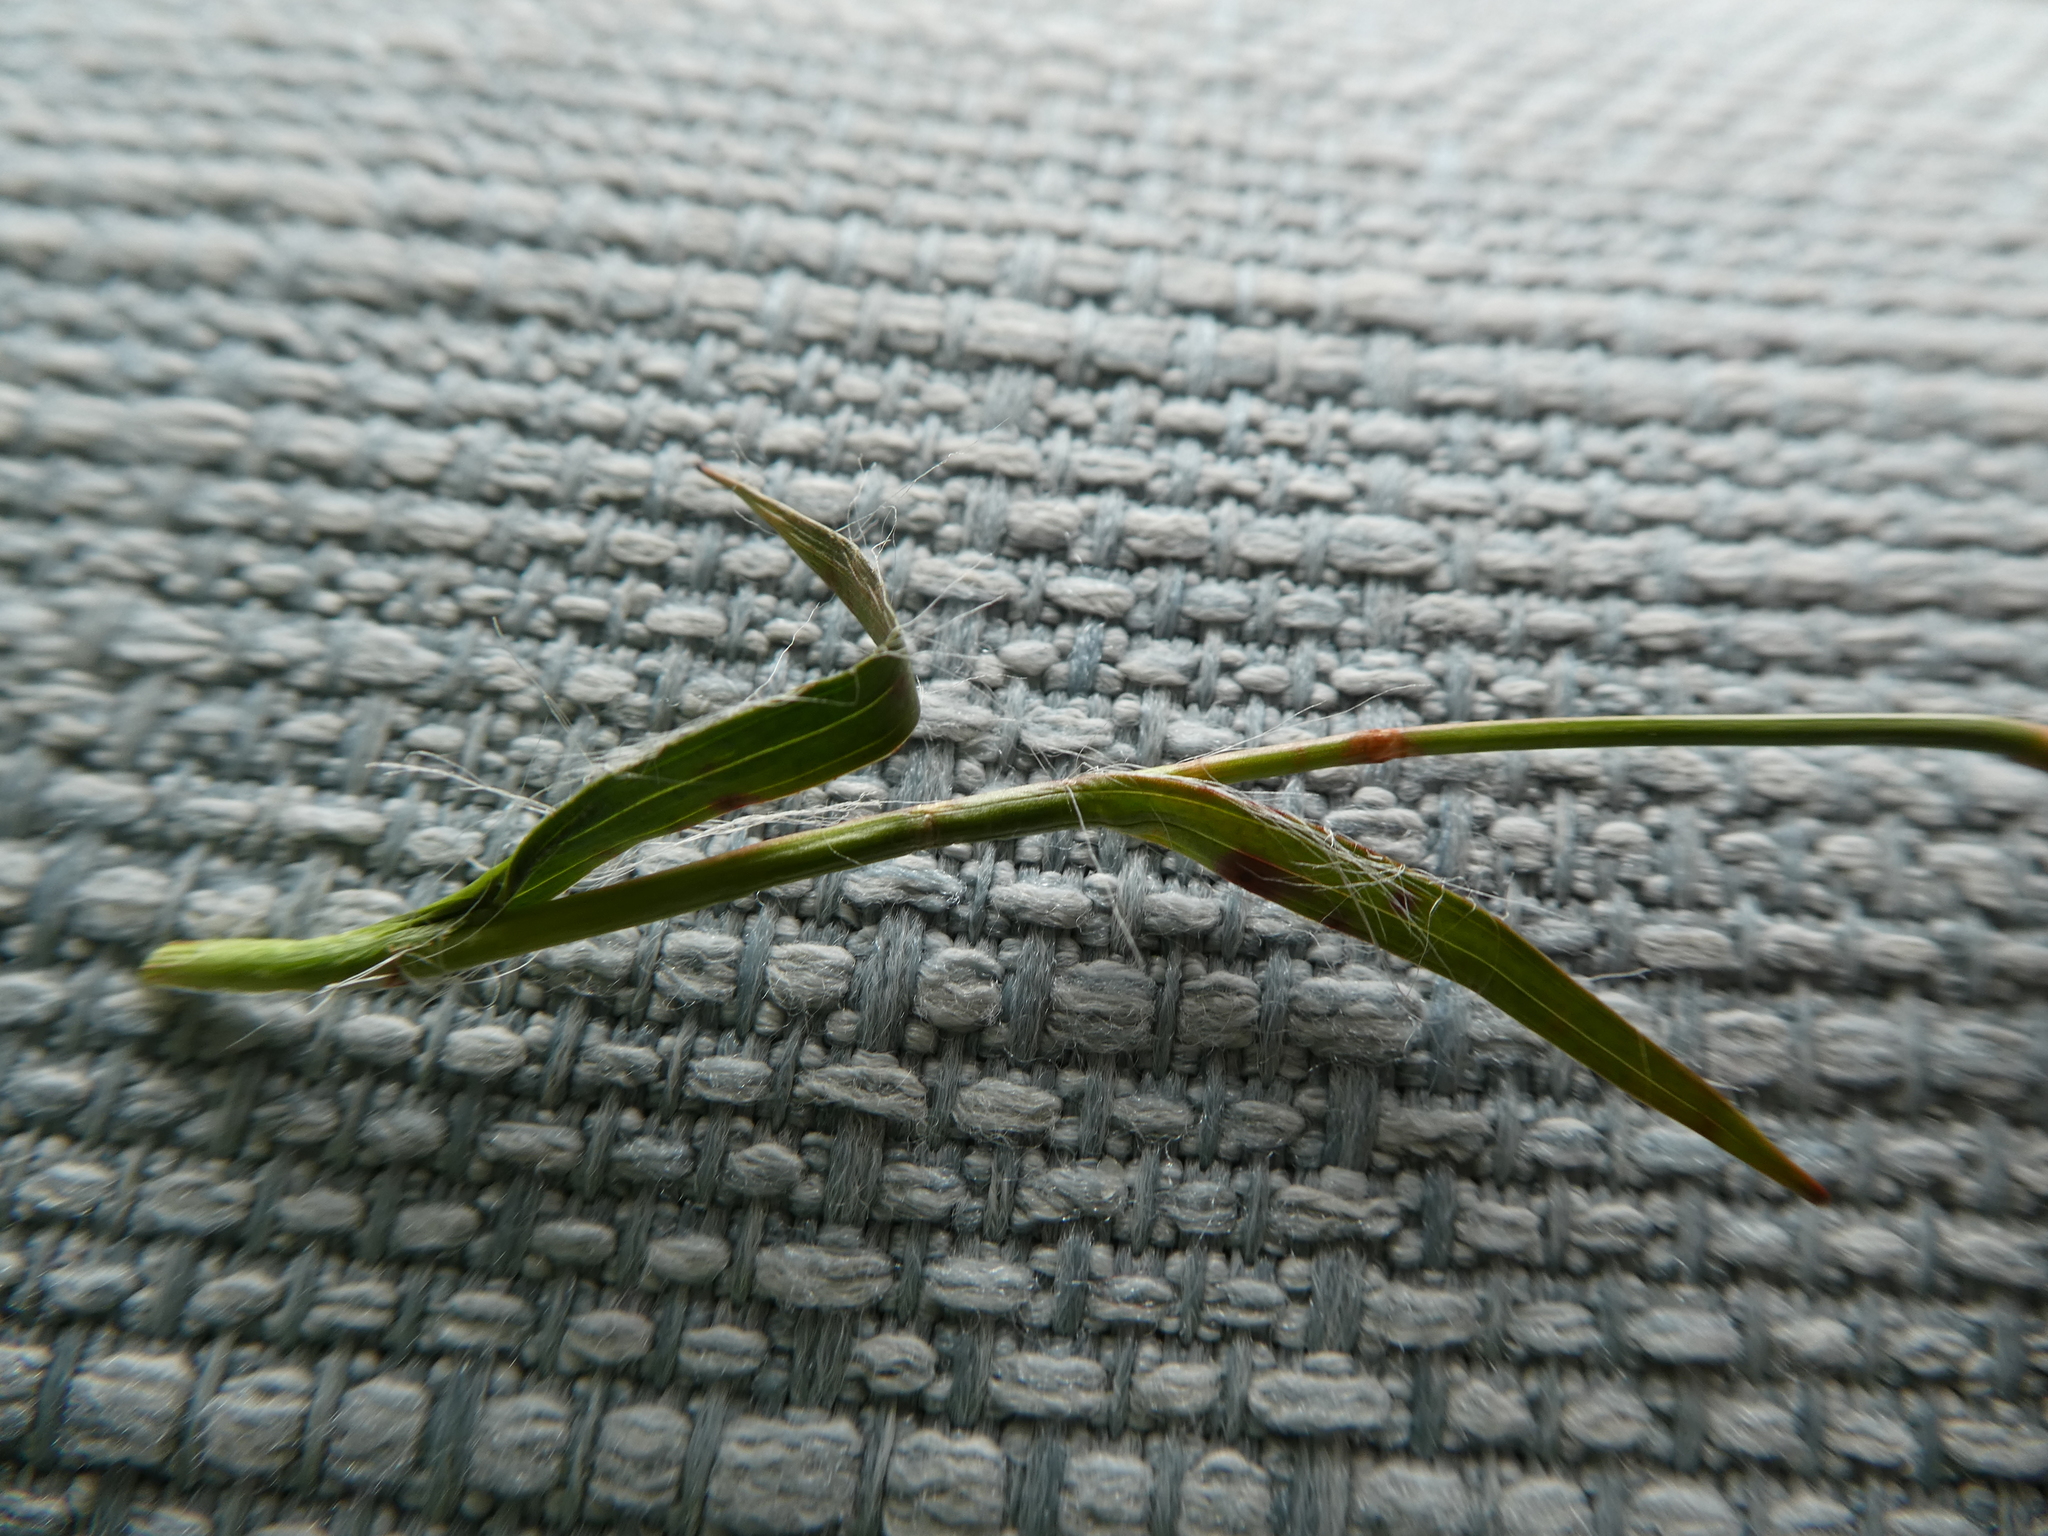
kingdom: Plantae
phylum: Tracheophyta
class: Liliopsida
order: Poales
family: Juncaceae
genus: Luzula
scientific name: Luzula campestris
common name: Field wood-rush
